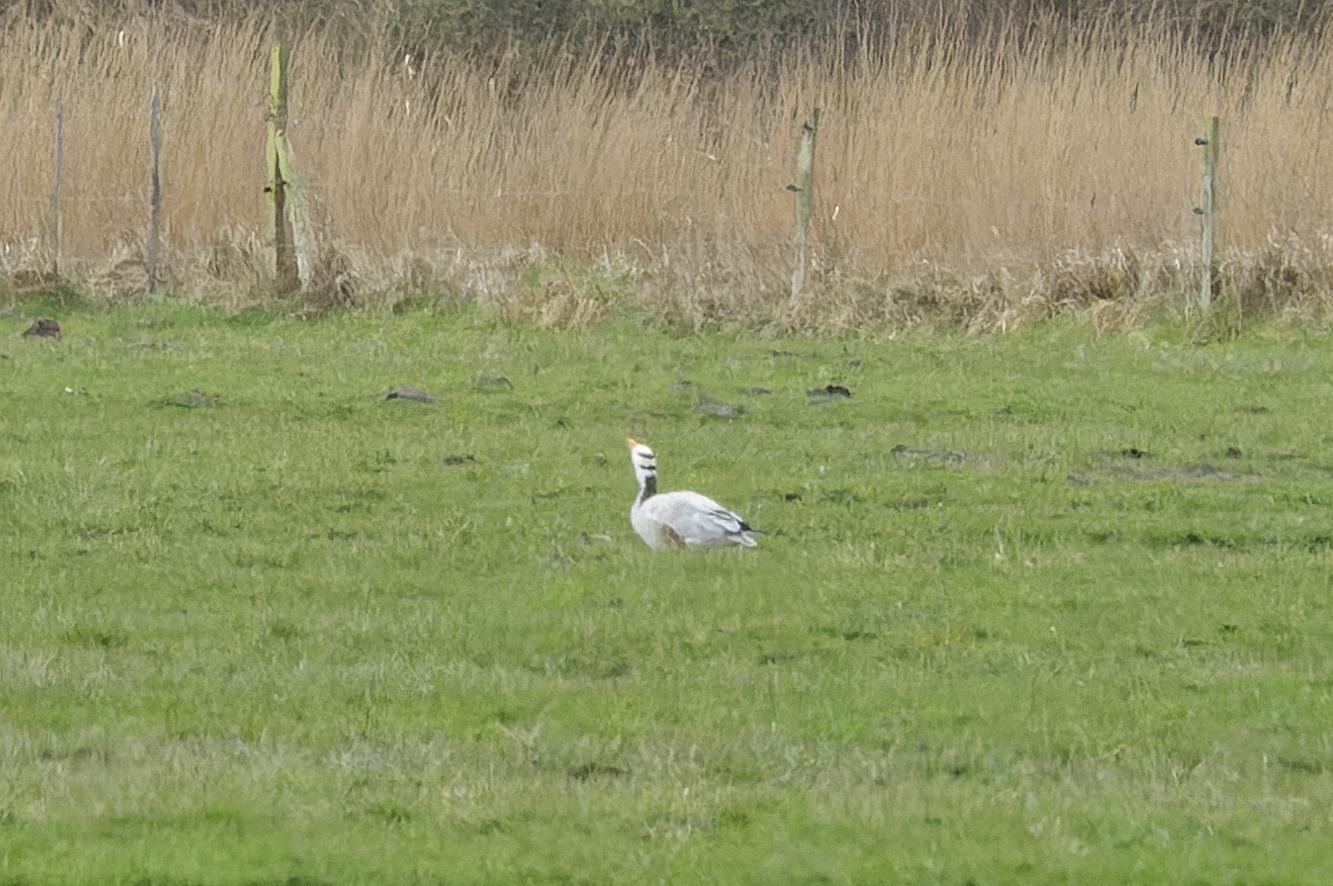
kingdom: Animalia
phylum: Chordata
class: Aves
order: Anseriformes
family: Anatidae
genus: Anser
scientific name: Anser indicus
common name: Bar-headed goose
